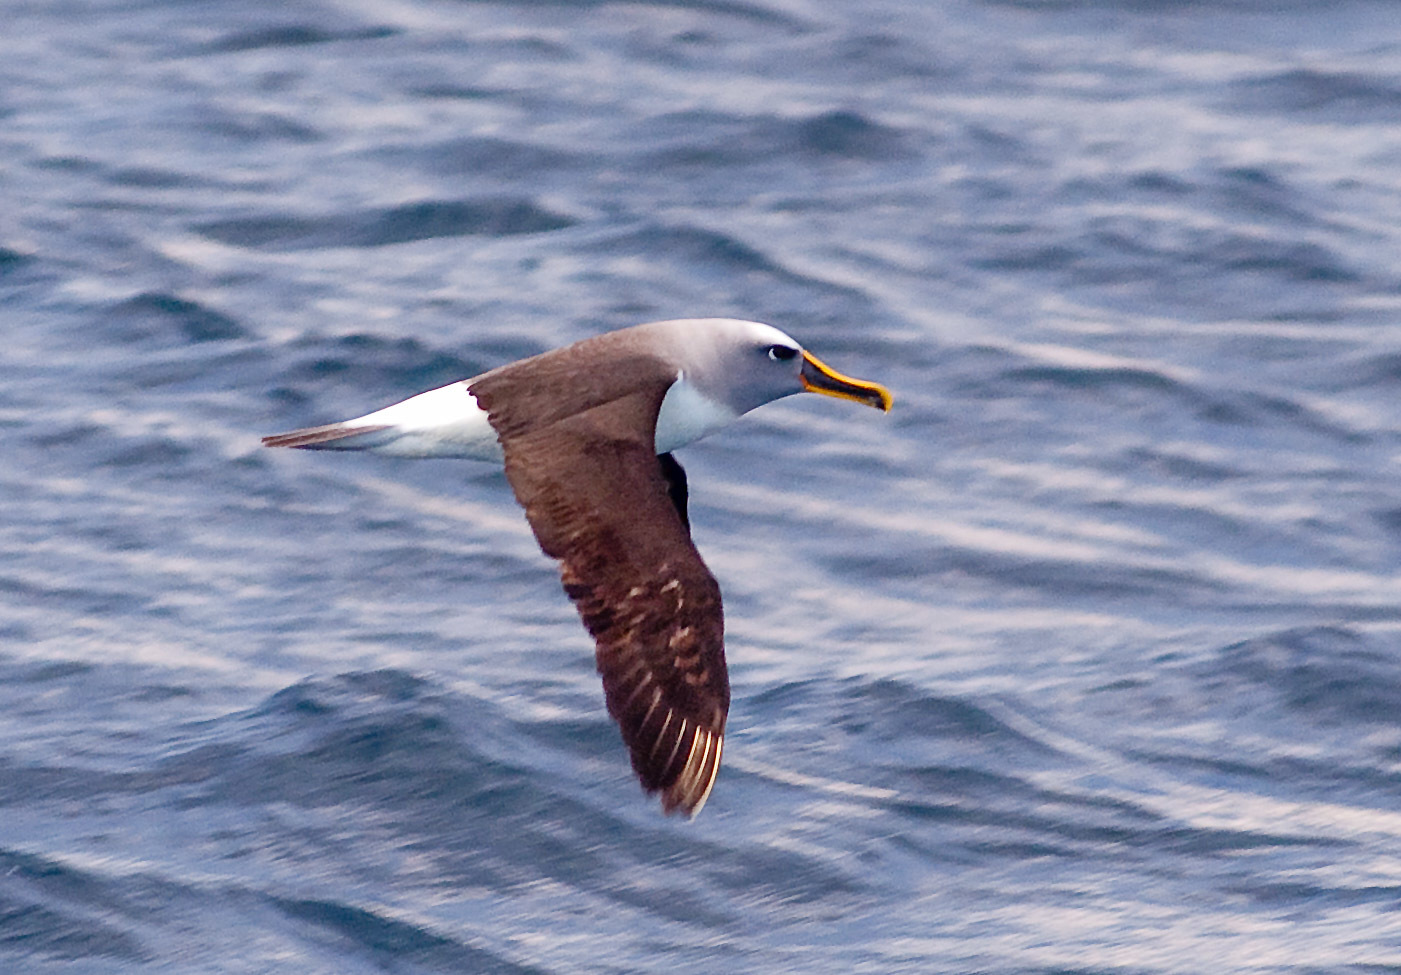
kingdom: Animalia
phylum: Chordata
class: Aves
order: Procellariiformes
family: Diomedeidae
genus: Thalassarche
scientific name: Thalassarche bulleri
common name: Buller's albatross
